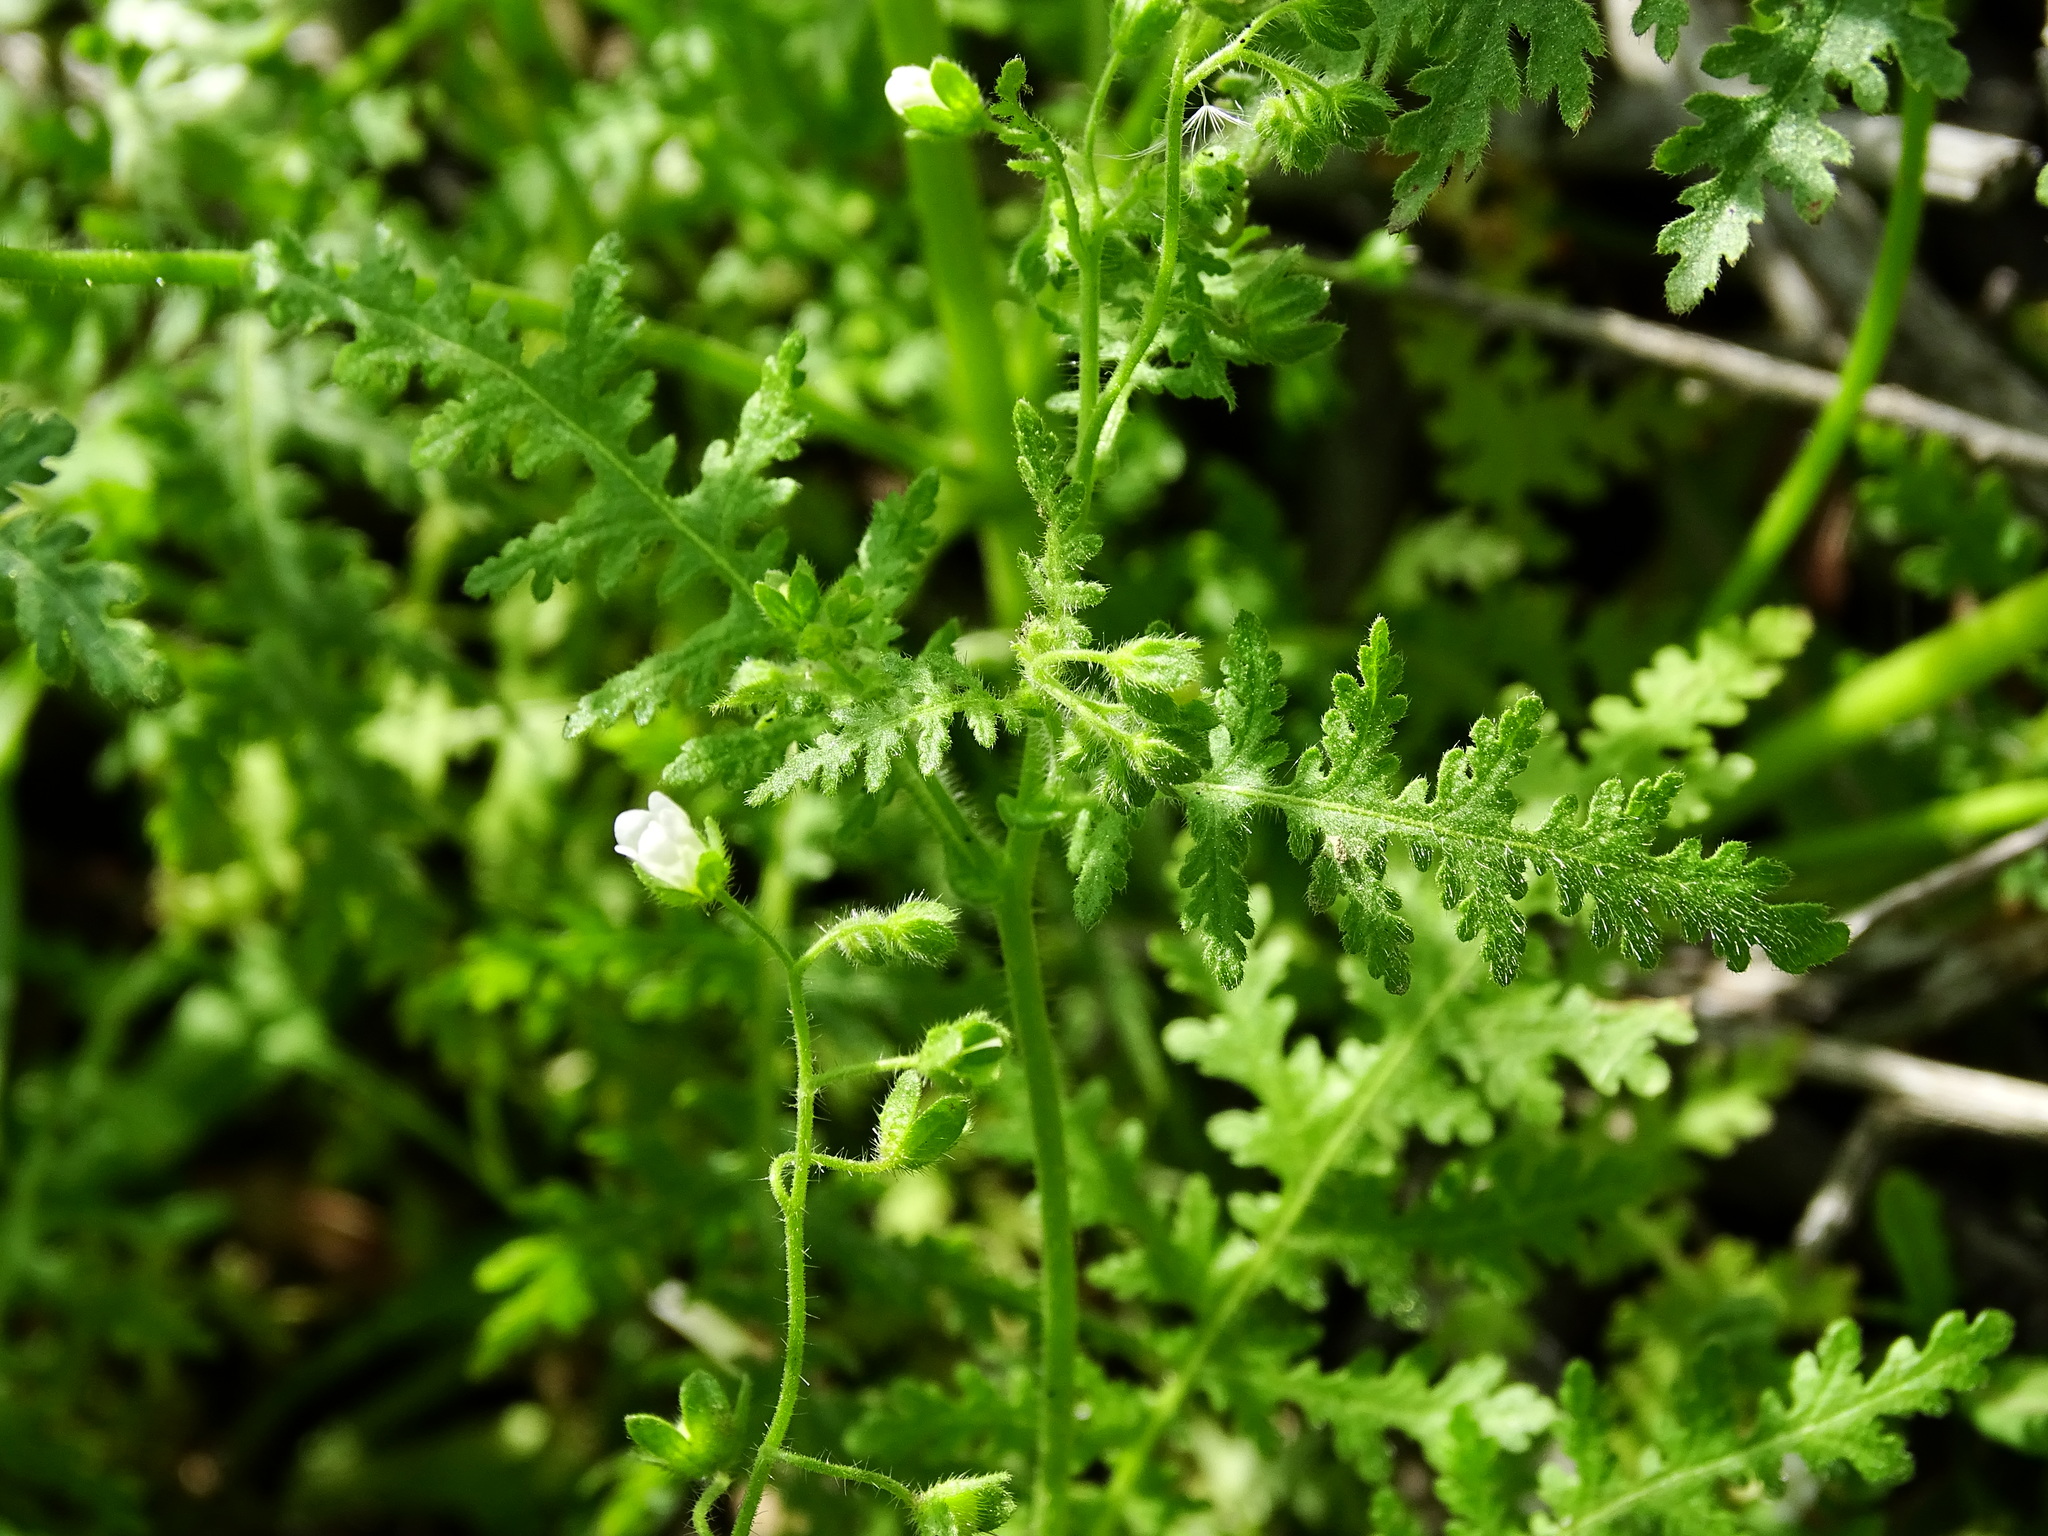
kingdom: Plantae
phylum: Tracheophyta
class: Magnoliopsida
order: Boraginales
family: Hydrophyllaceae
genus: Eucrypta
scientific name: Eucrypta chrysanthemifolia
